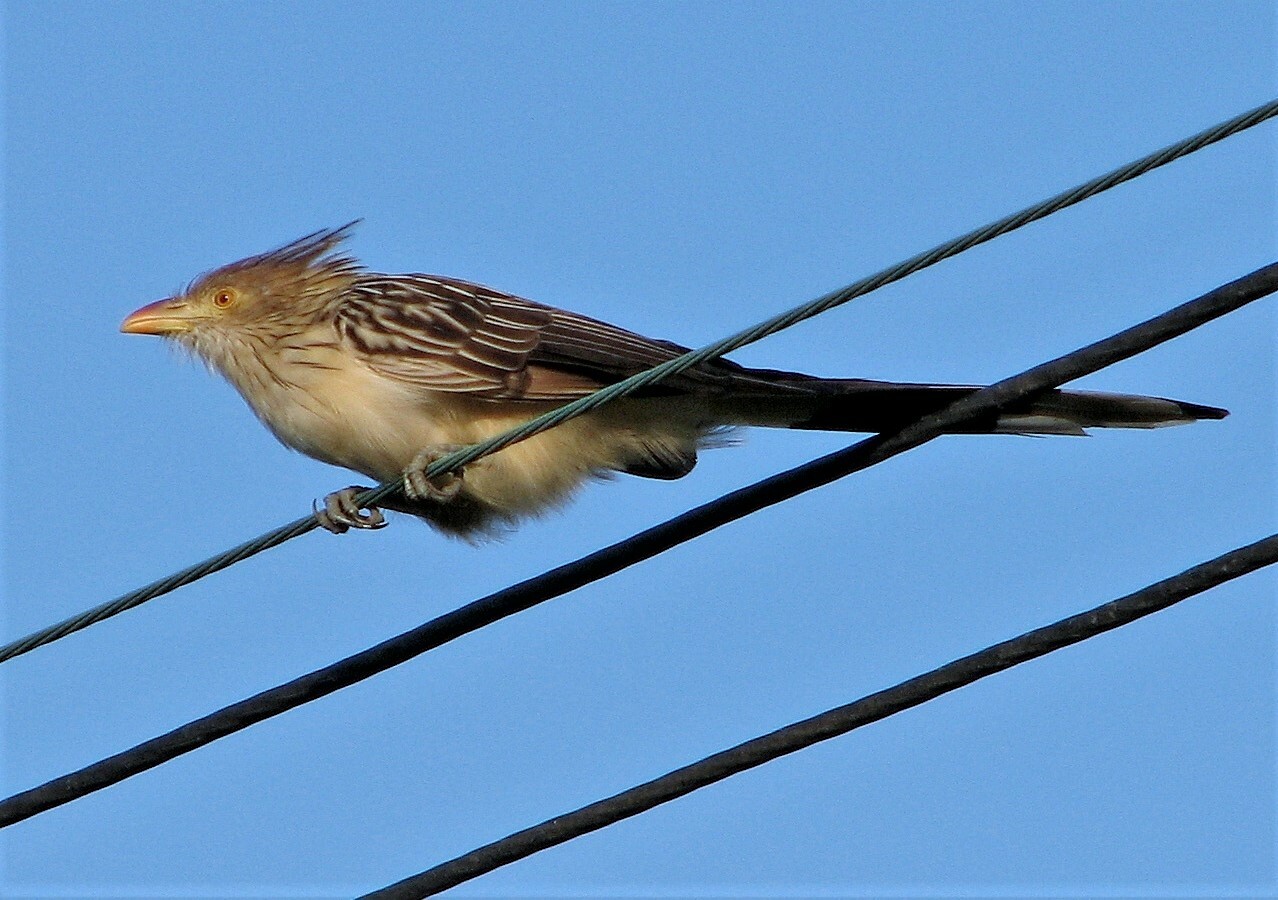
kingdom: Animalia
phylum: Chordata
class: Aves
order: Cuculiformes
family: Cuculidae
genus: Guira
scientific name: Guira guira
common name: Guira cuckoo
